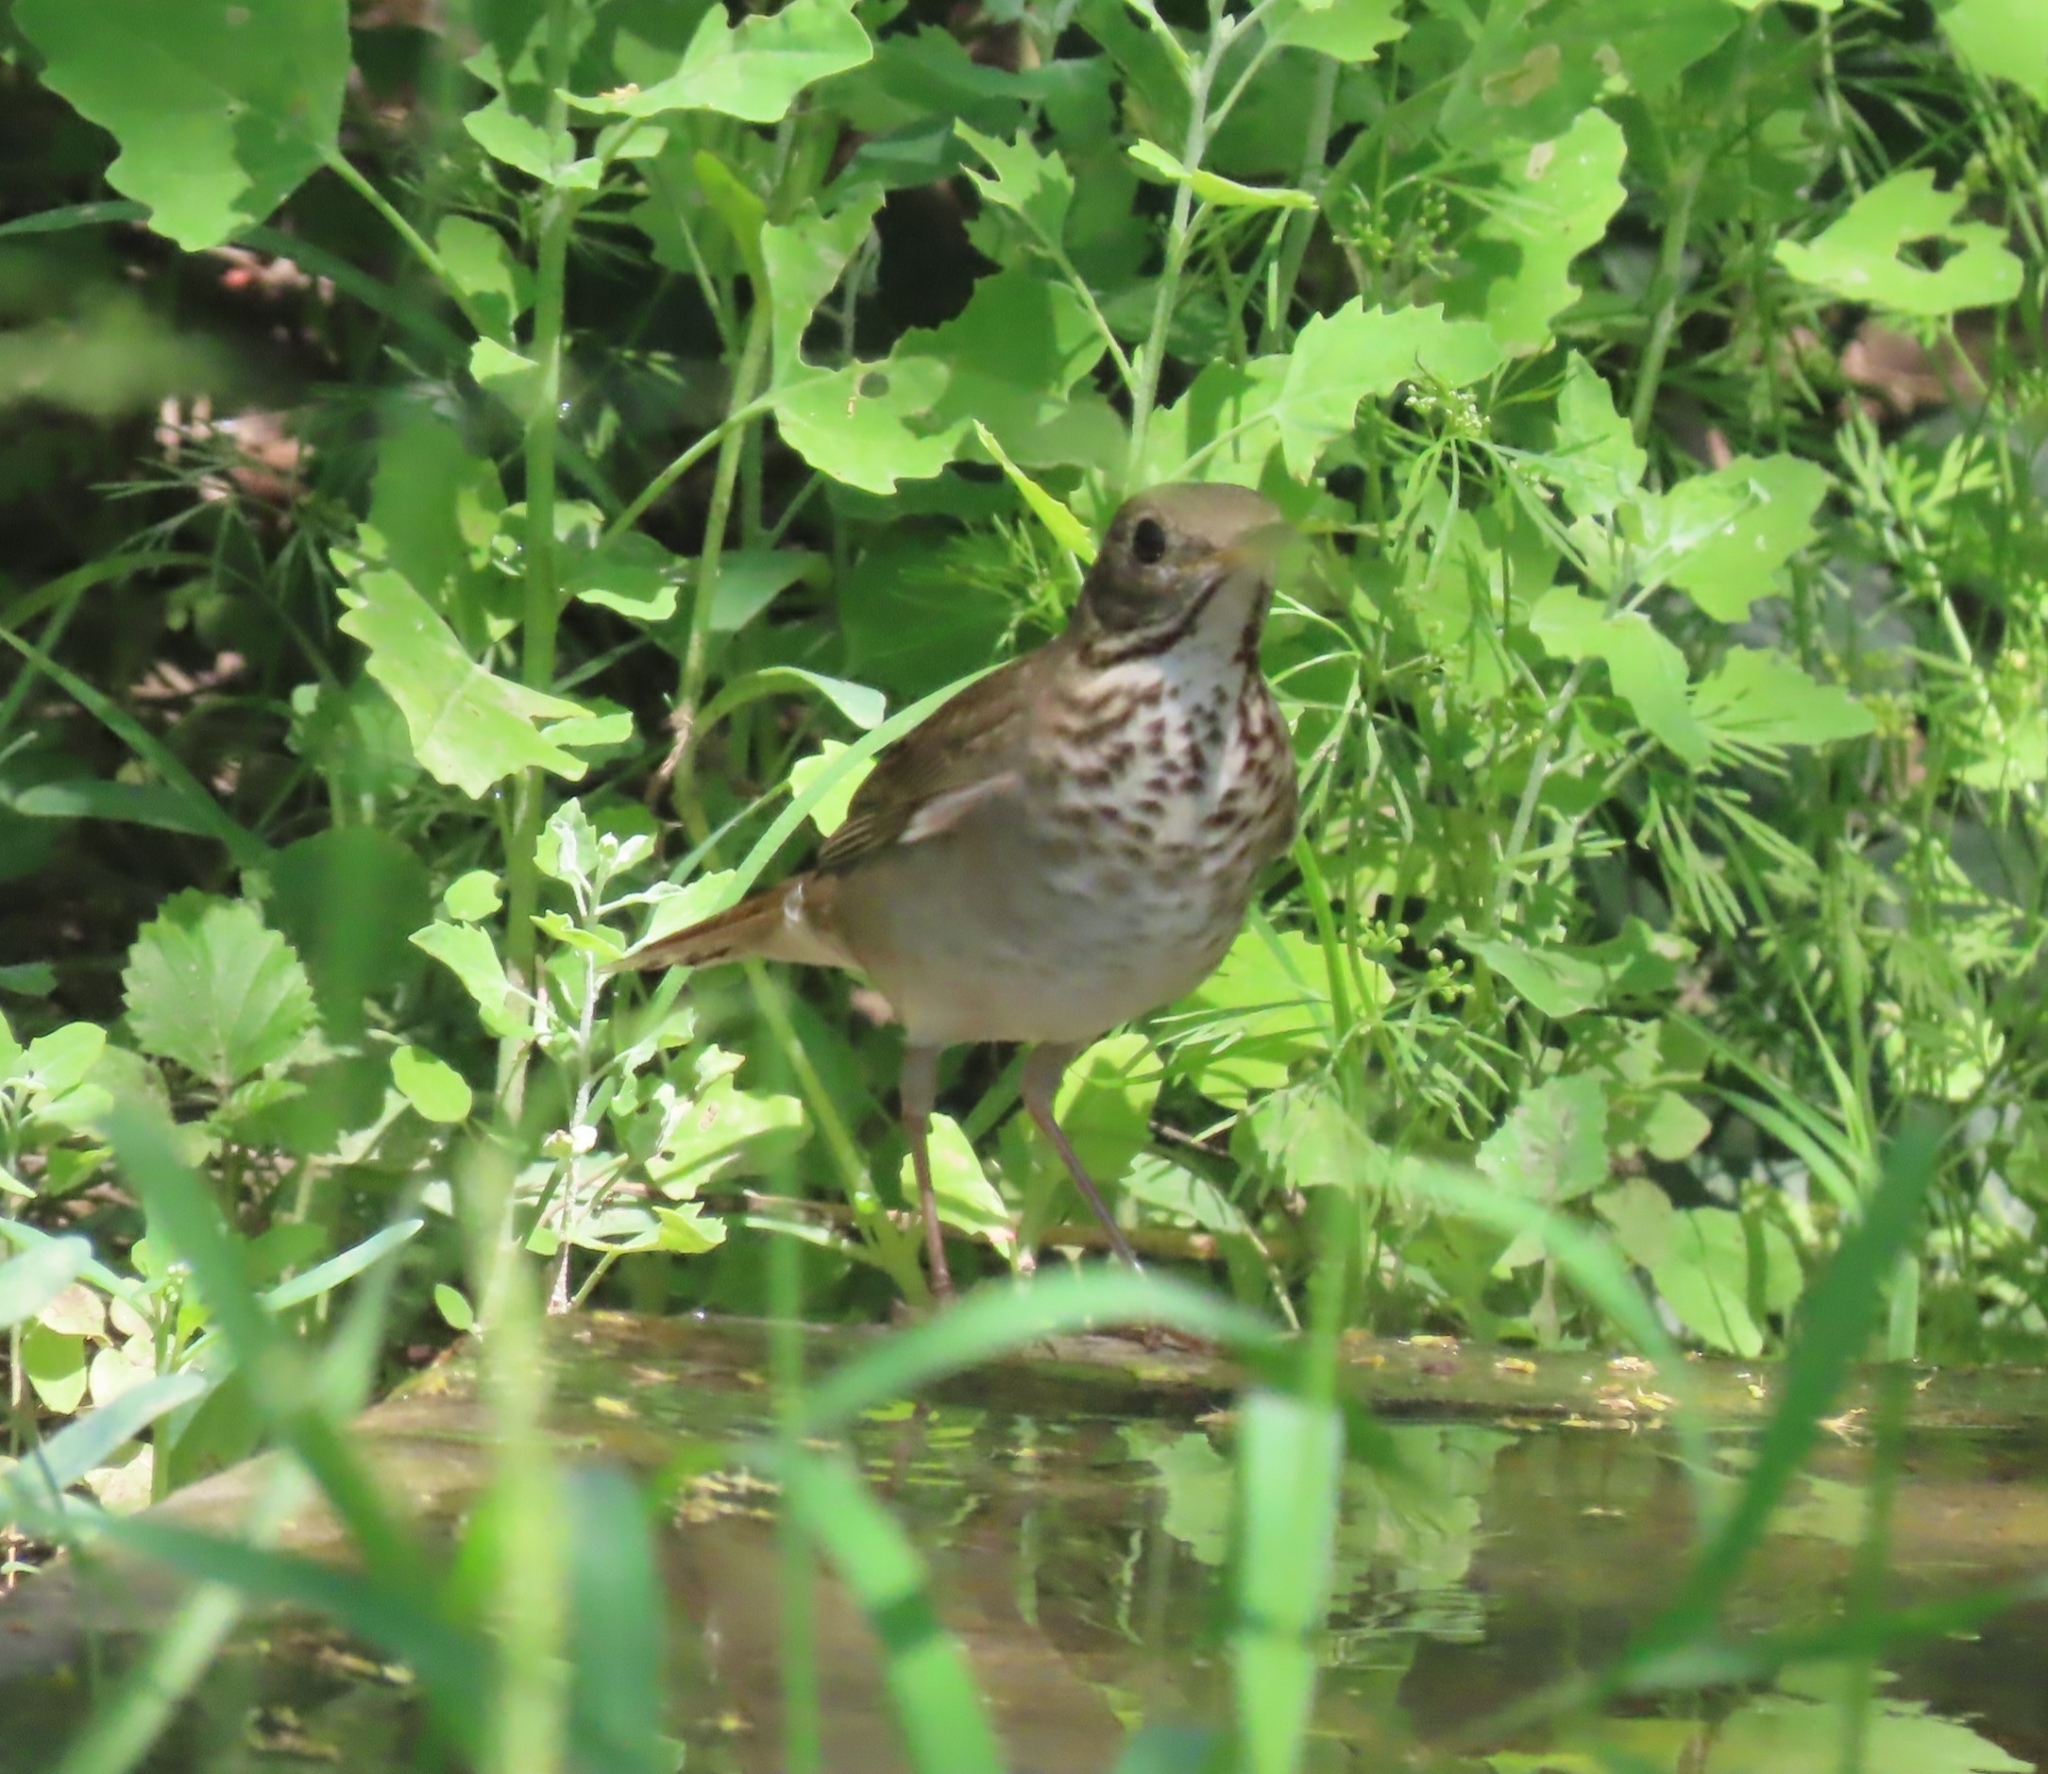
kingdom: Animalia
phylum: Chordata
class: Aves
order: Passeriformes
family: Turdidae
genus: Catharus
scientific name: Catharus minimus
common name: Grey-cheeked thrush
